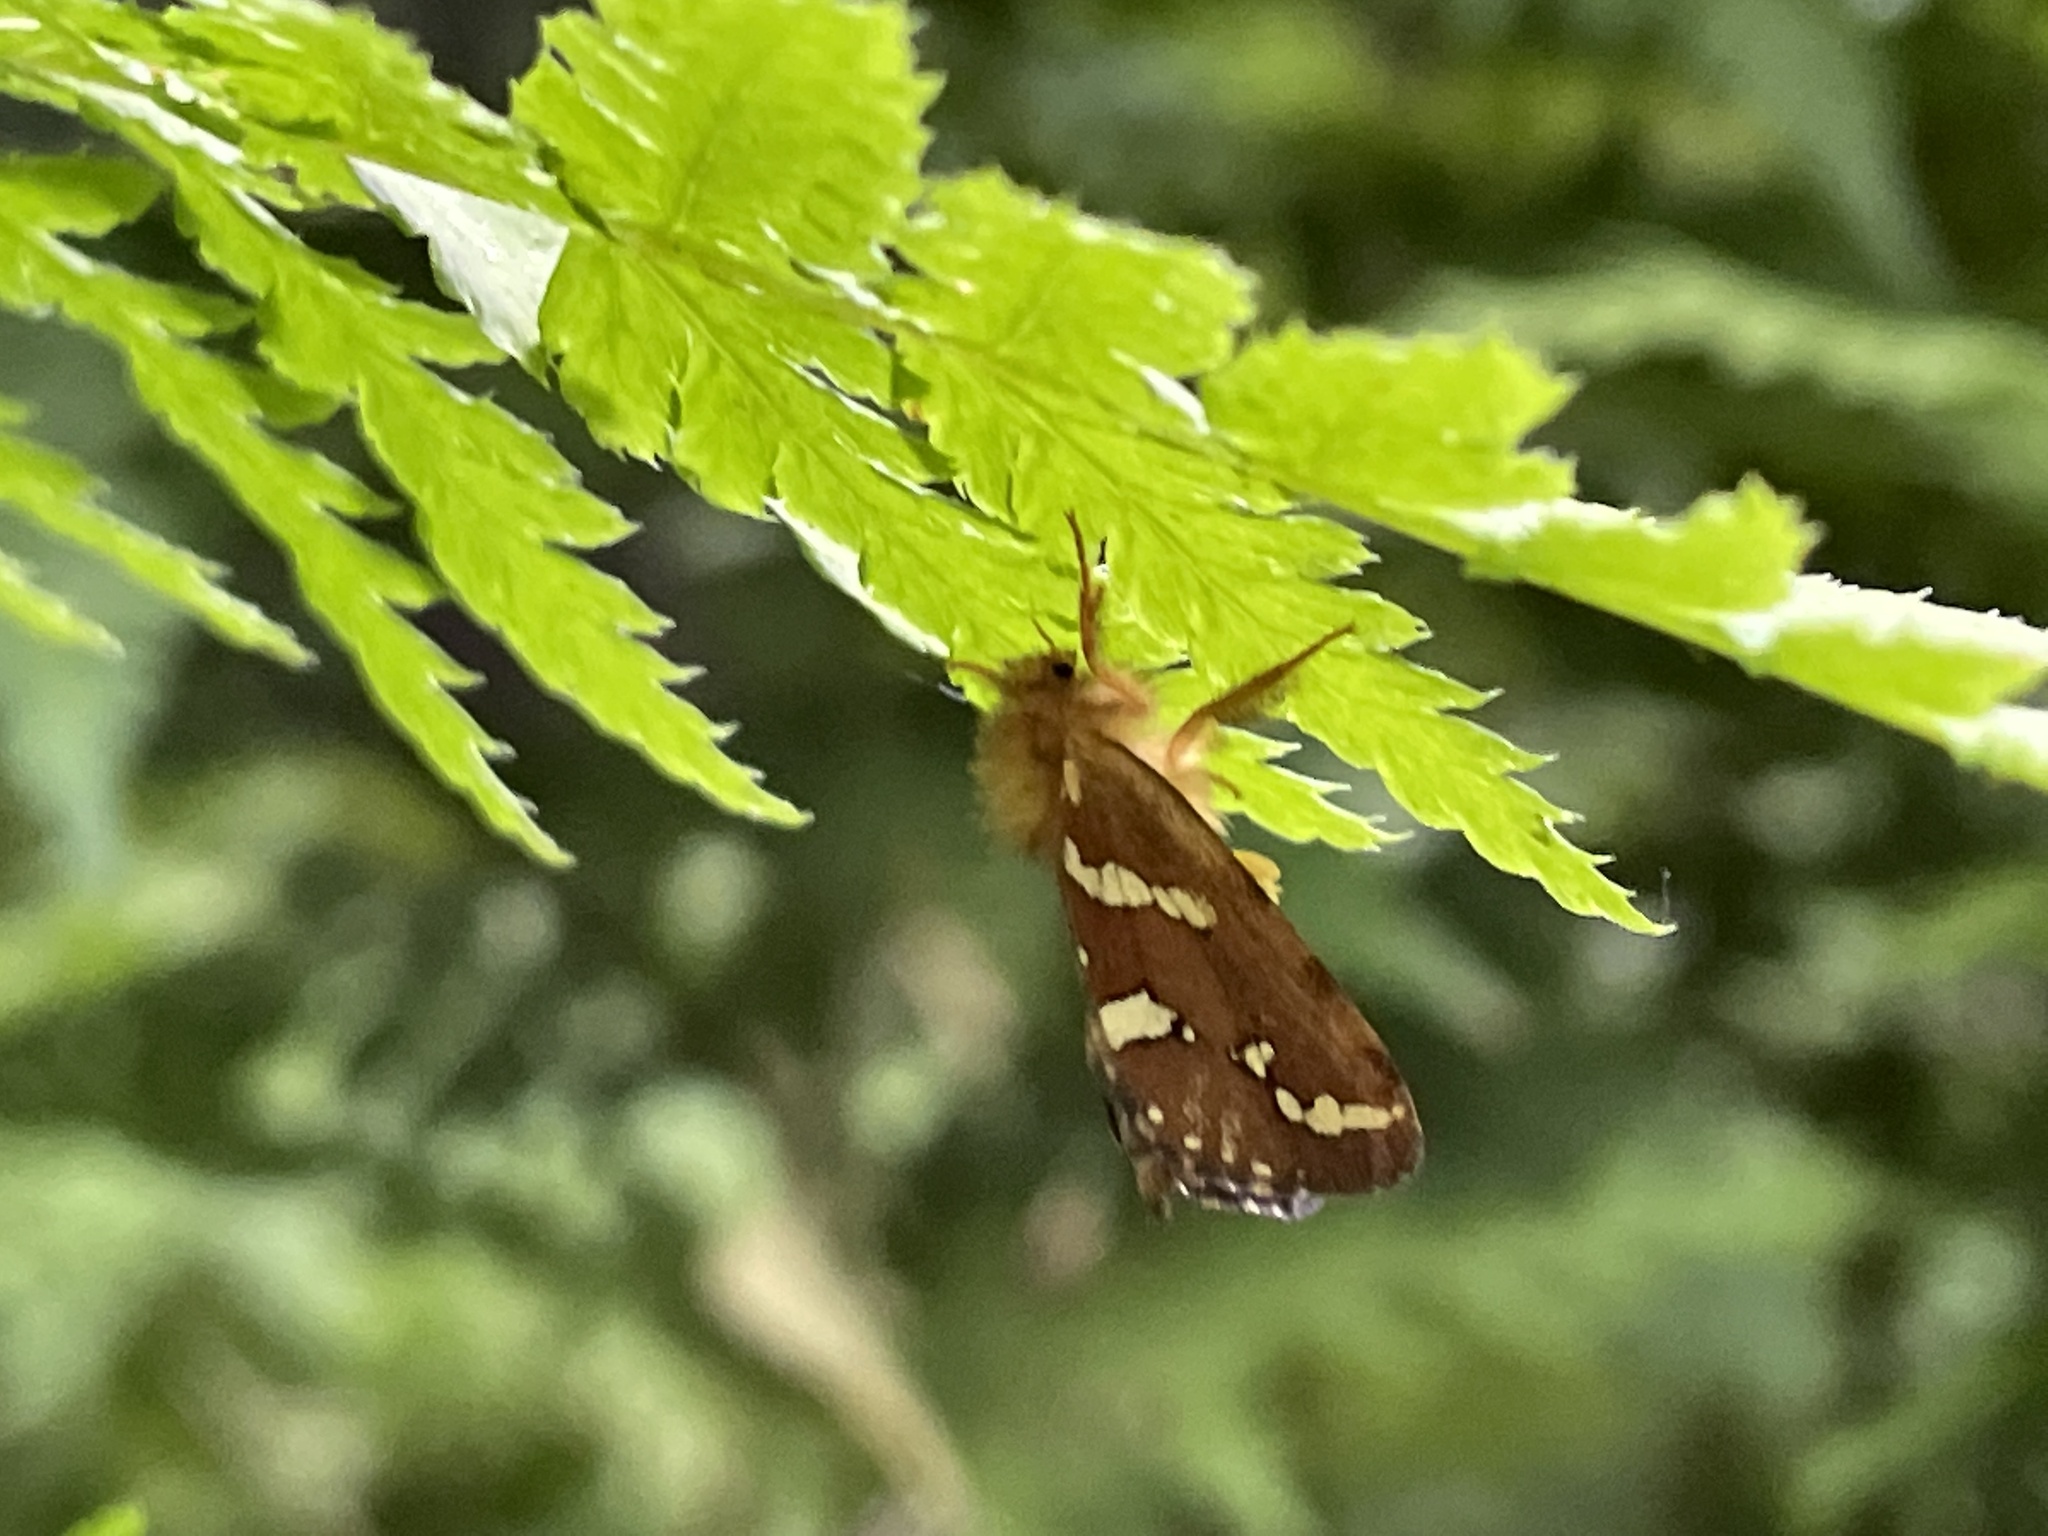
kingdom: Animalia
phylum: Arthropoda
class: Insecta
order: Lepidoptera
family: Hepialidae
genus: Phymatopus
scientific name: Phymatopus hecta
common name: Gold swift
